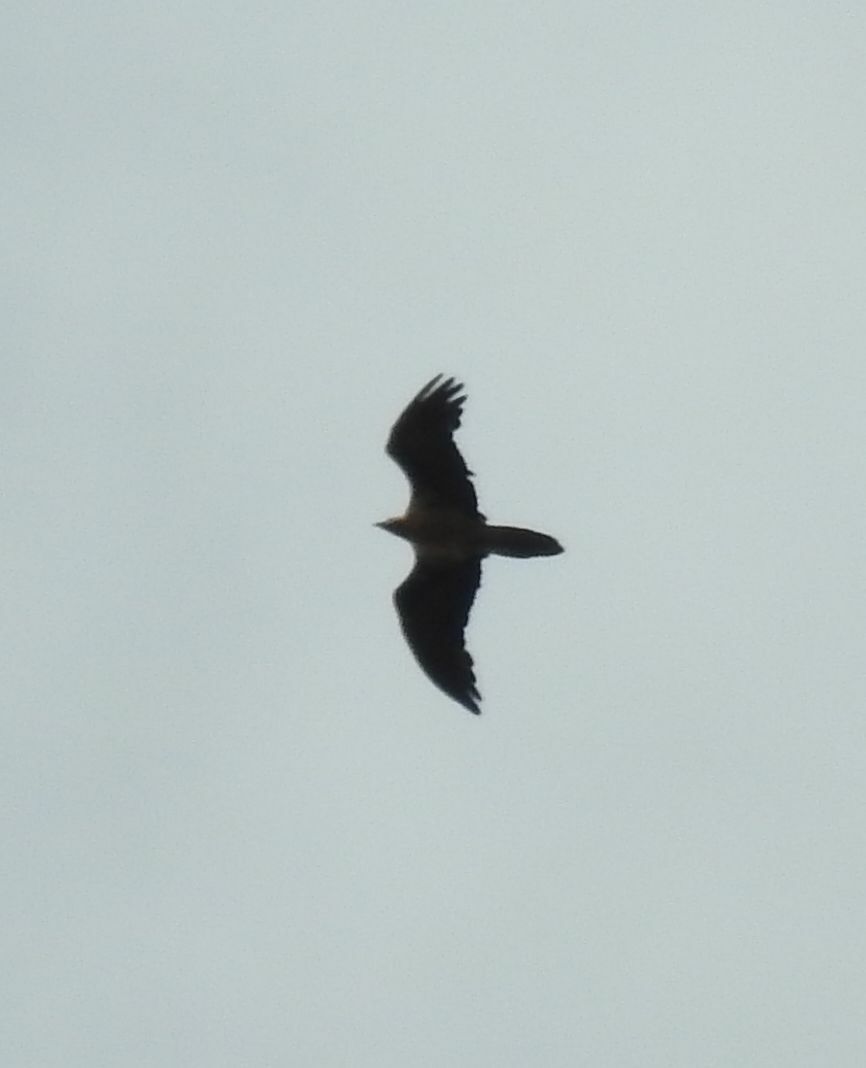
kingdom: Animalia
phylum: Chordata
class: Aves
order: Accipitriformes
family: Accipitridae
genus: Gypaetus
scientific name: Gypaetus barbatus
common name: Bearded vulture
